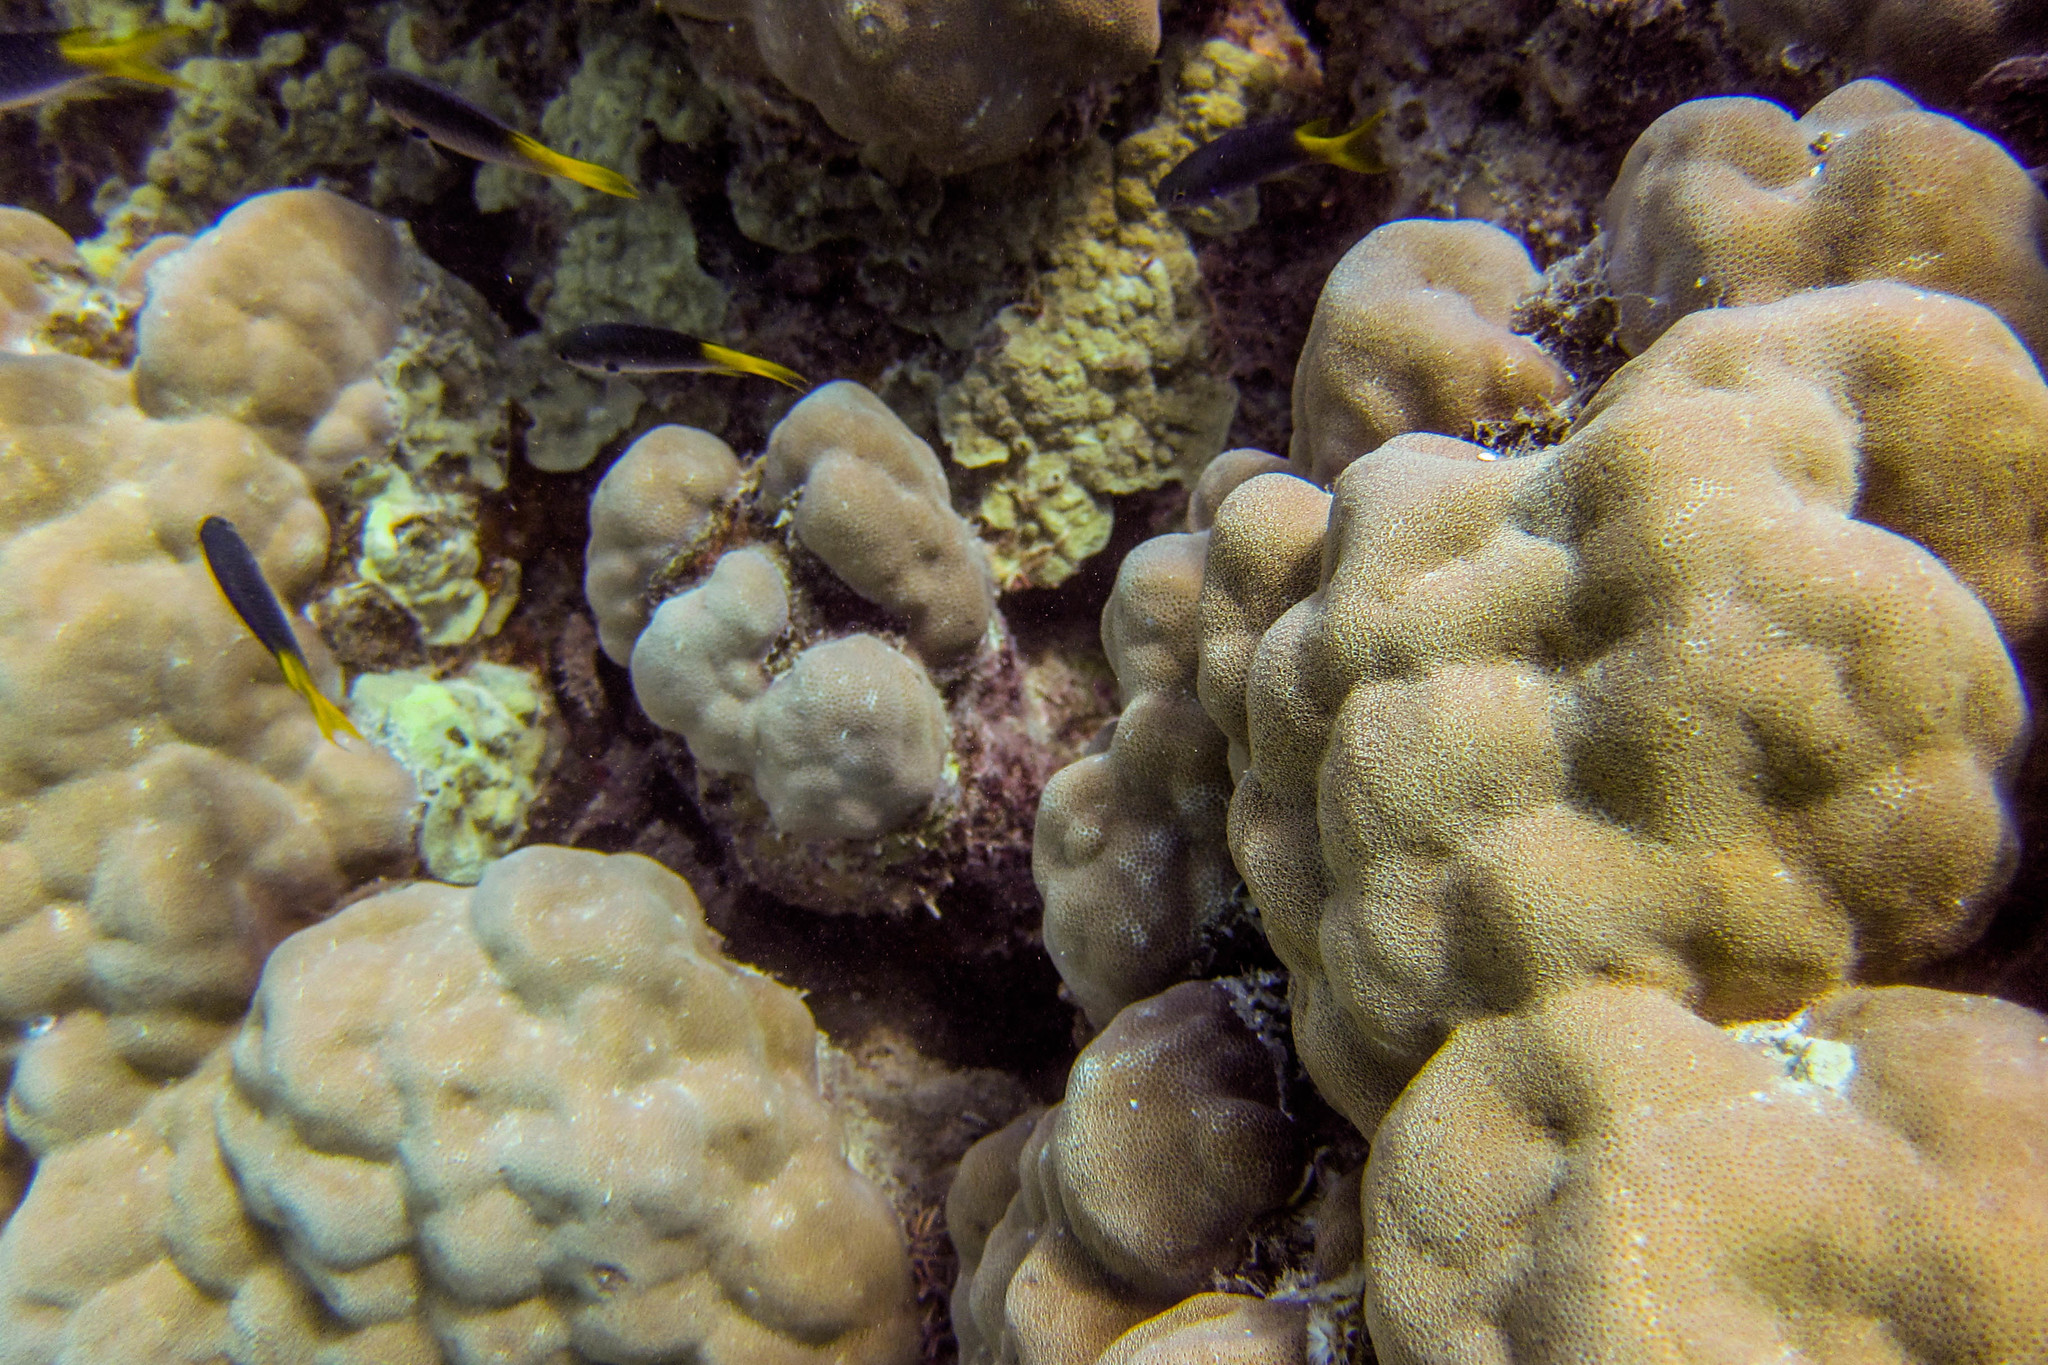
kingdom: Animalia
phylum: Chordata
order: Perciformes
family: Pomacentridae
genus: Neopomacentrus
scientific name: Neopomacentrus azysron
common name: Yellow-tail damsel
